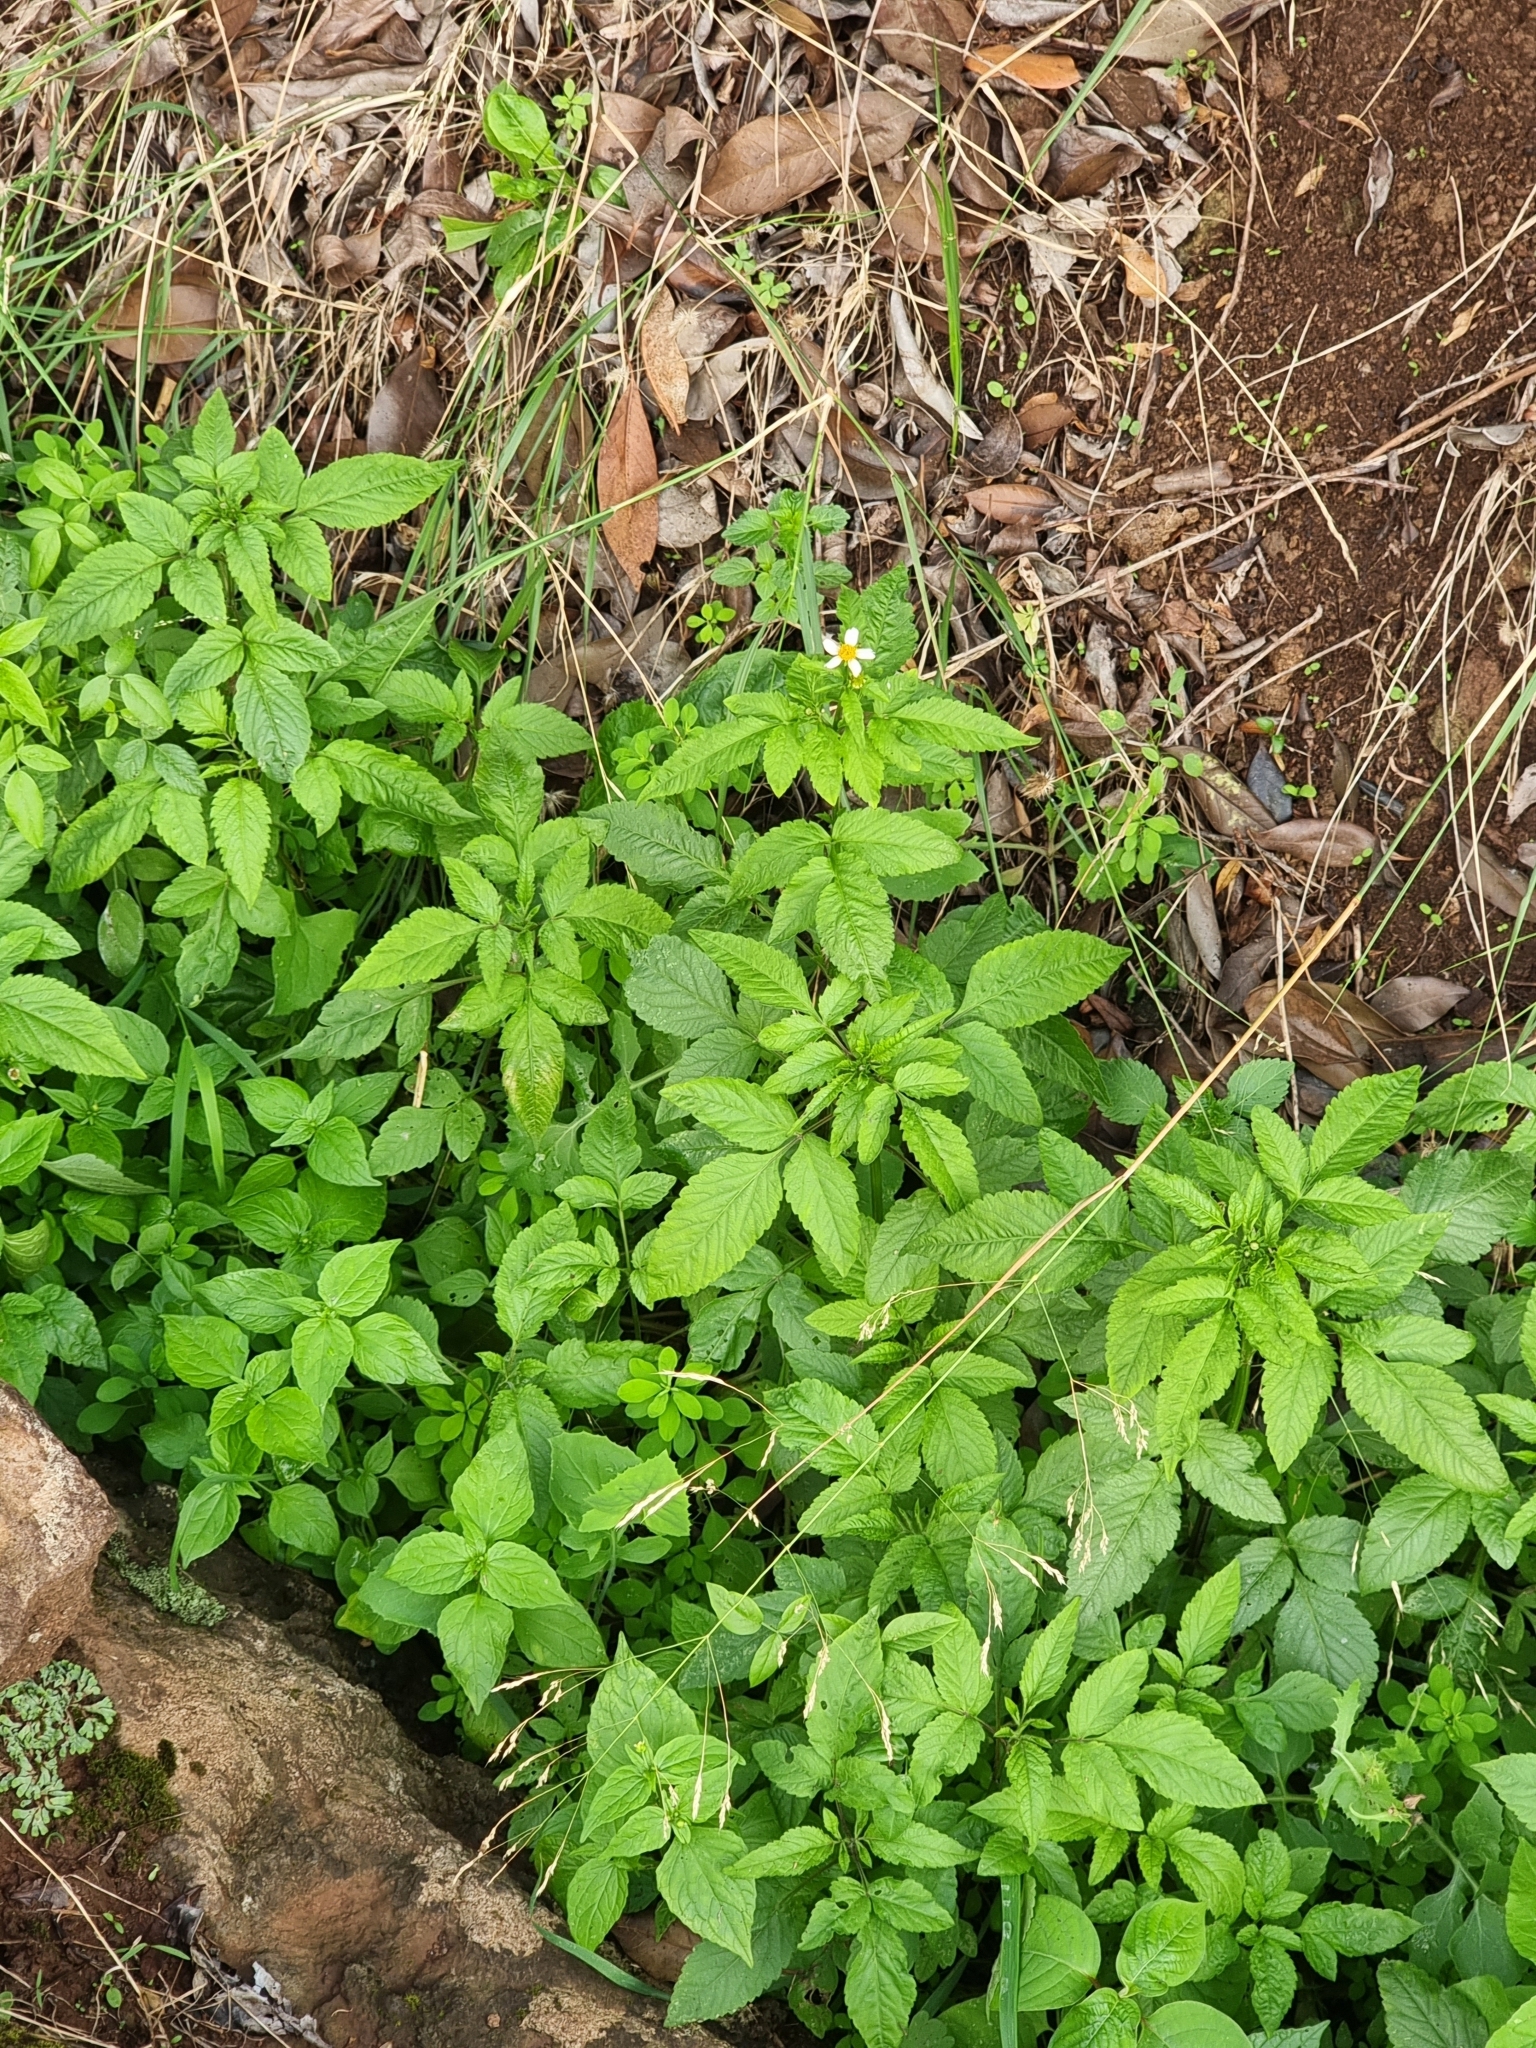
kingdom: Plantae
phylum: Tracheophyta
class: Magnoliopsida
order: Asterales
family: Asteraceae
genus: Bidens
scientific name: Bidens pilosa
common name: Black-jack
